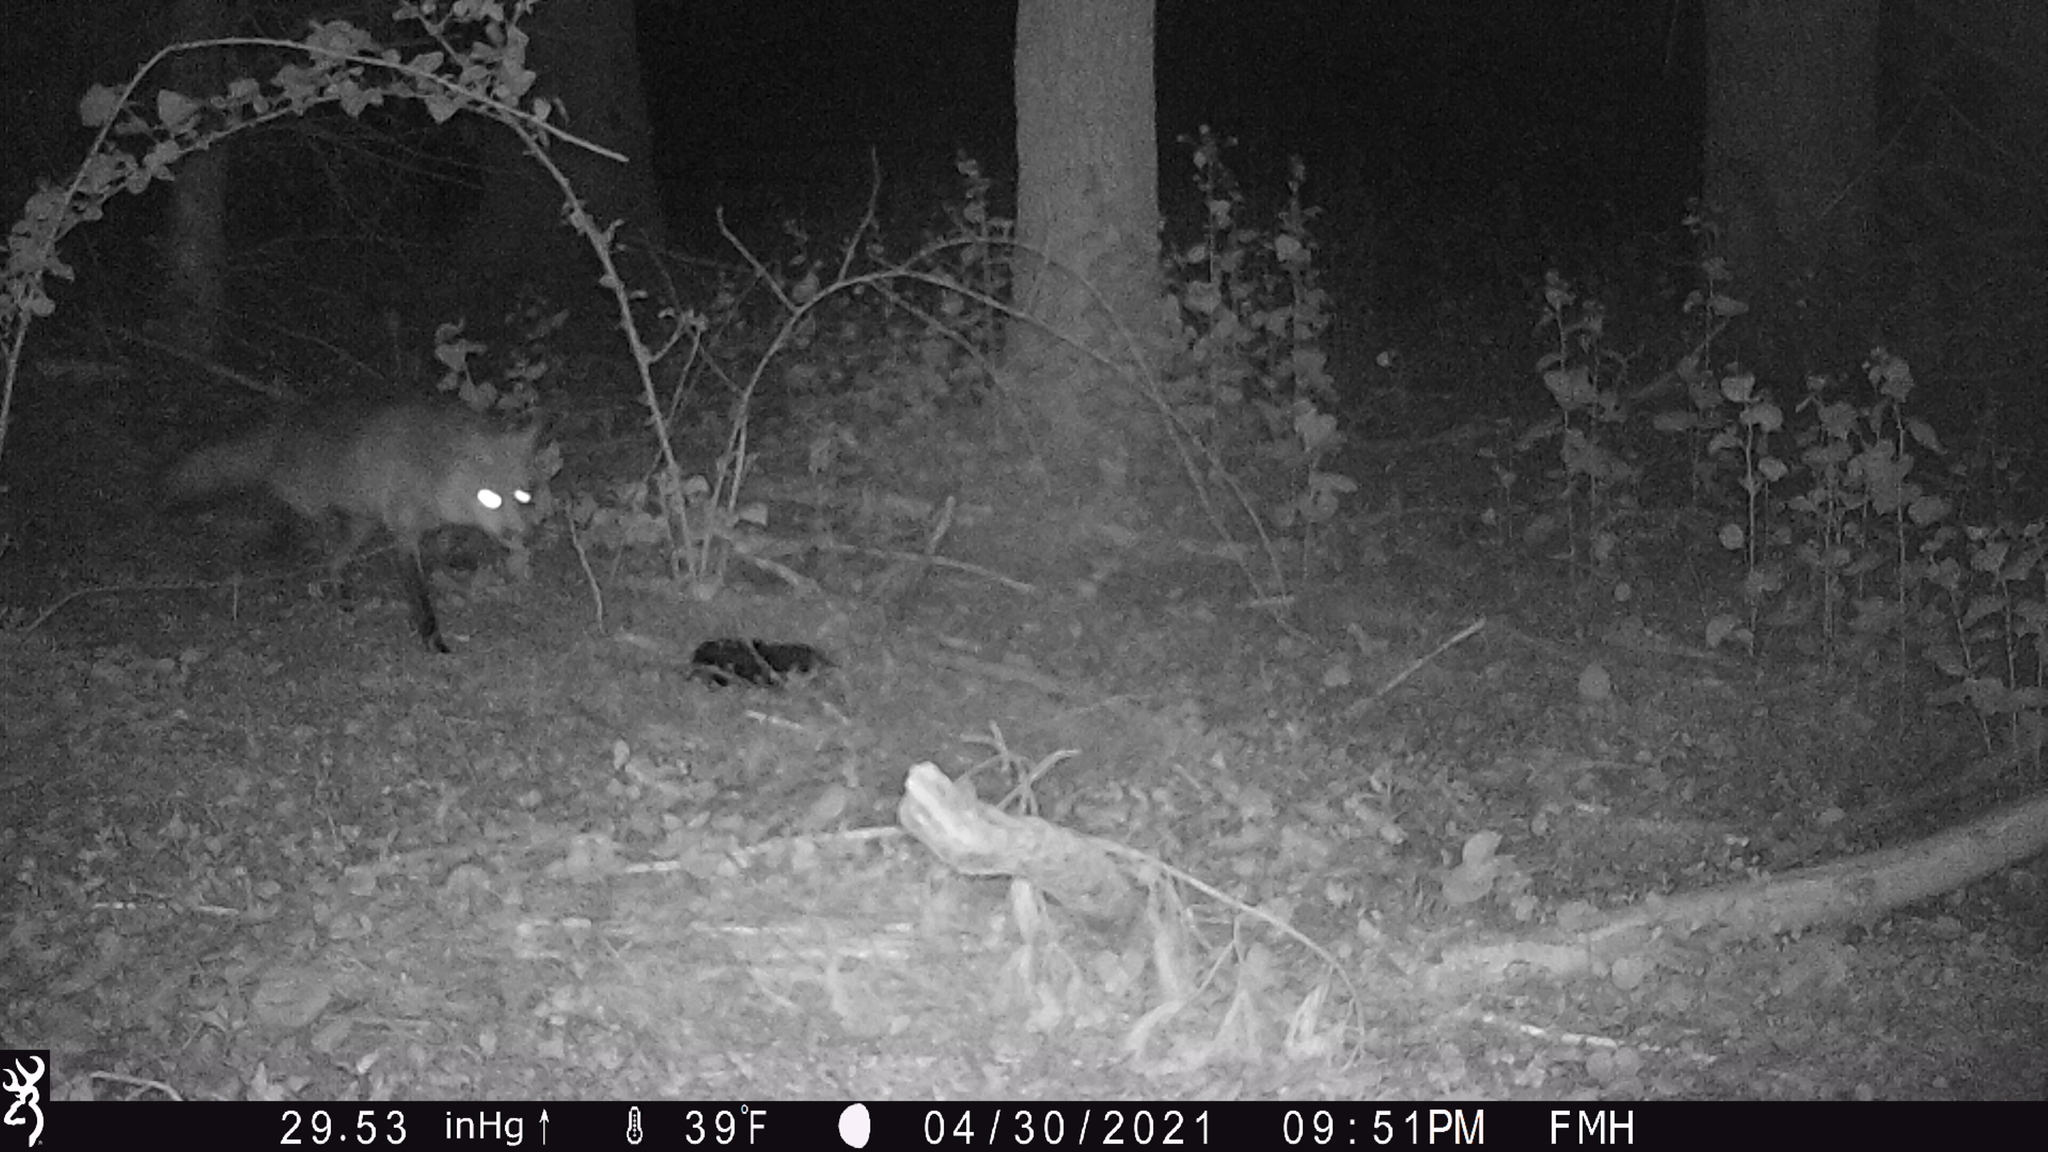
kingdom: Animalia
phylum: Chordata
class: Mammalia
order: Carnivora
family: Canidae
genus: Vulpes
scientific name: Vulpes vulpes
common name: Red fox
